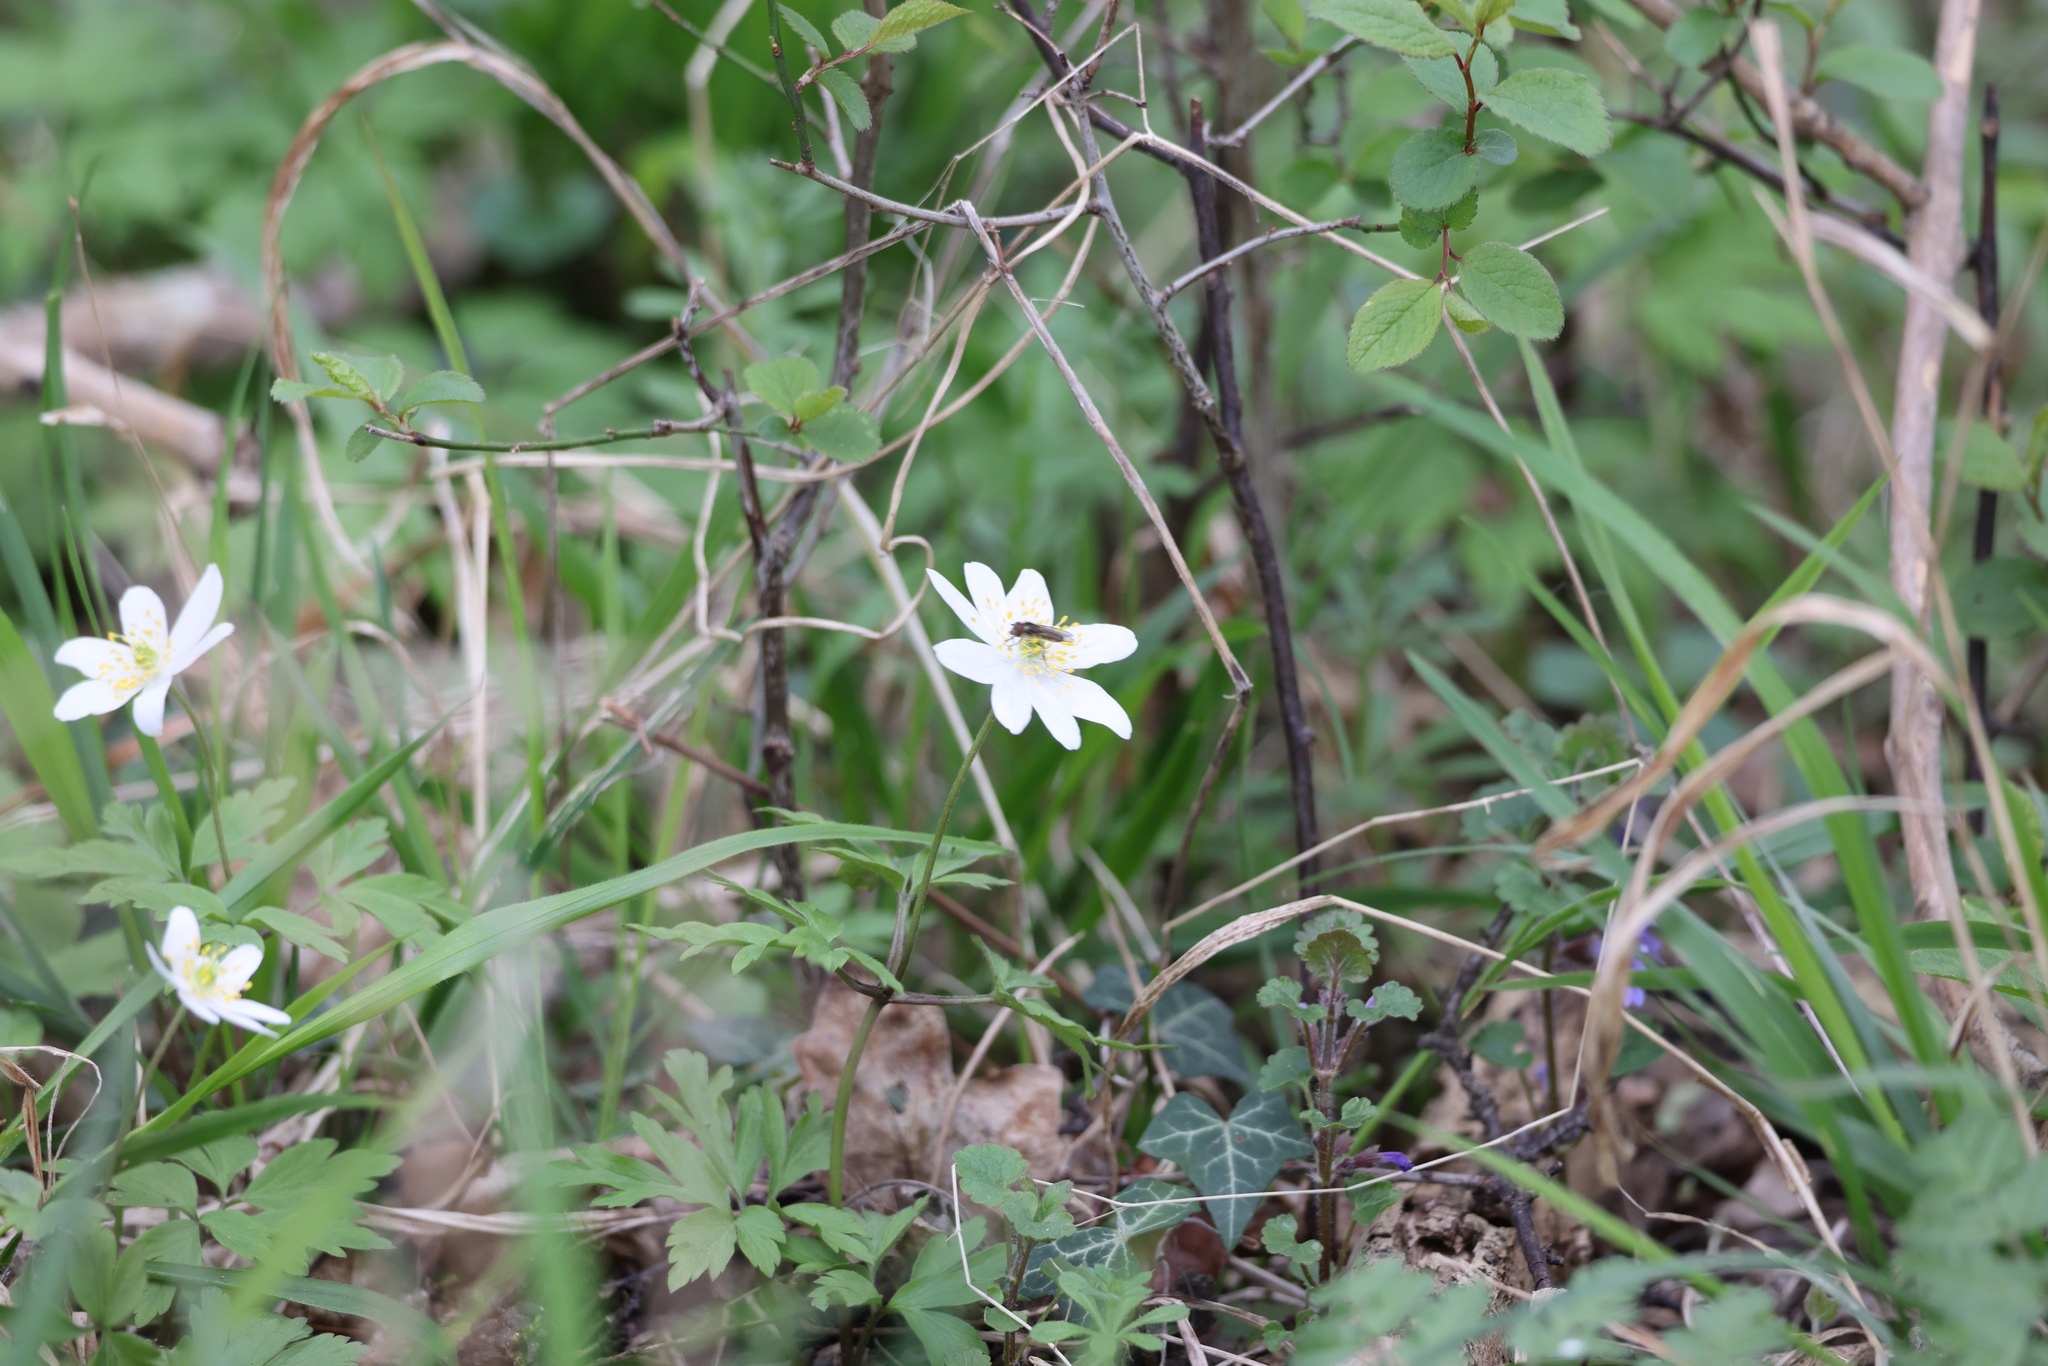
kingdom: Plantae
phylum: Tracheophyta
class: Magnoliopsida
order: Ranunculales
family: Ranunculaceae
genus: Anemone
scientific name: Anemone nemorosa
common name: Wood anemone
